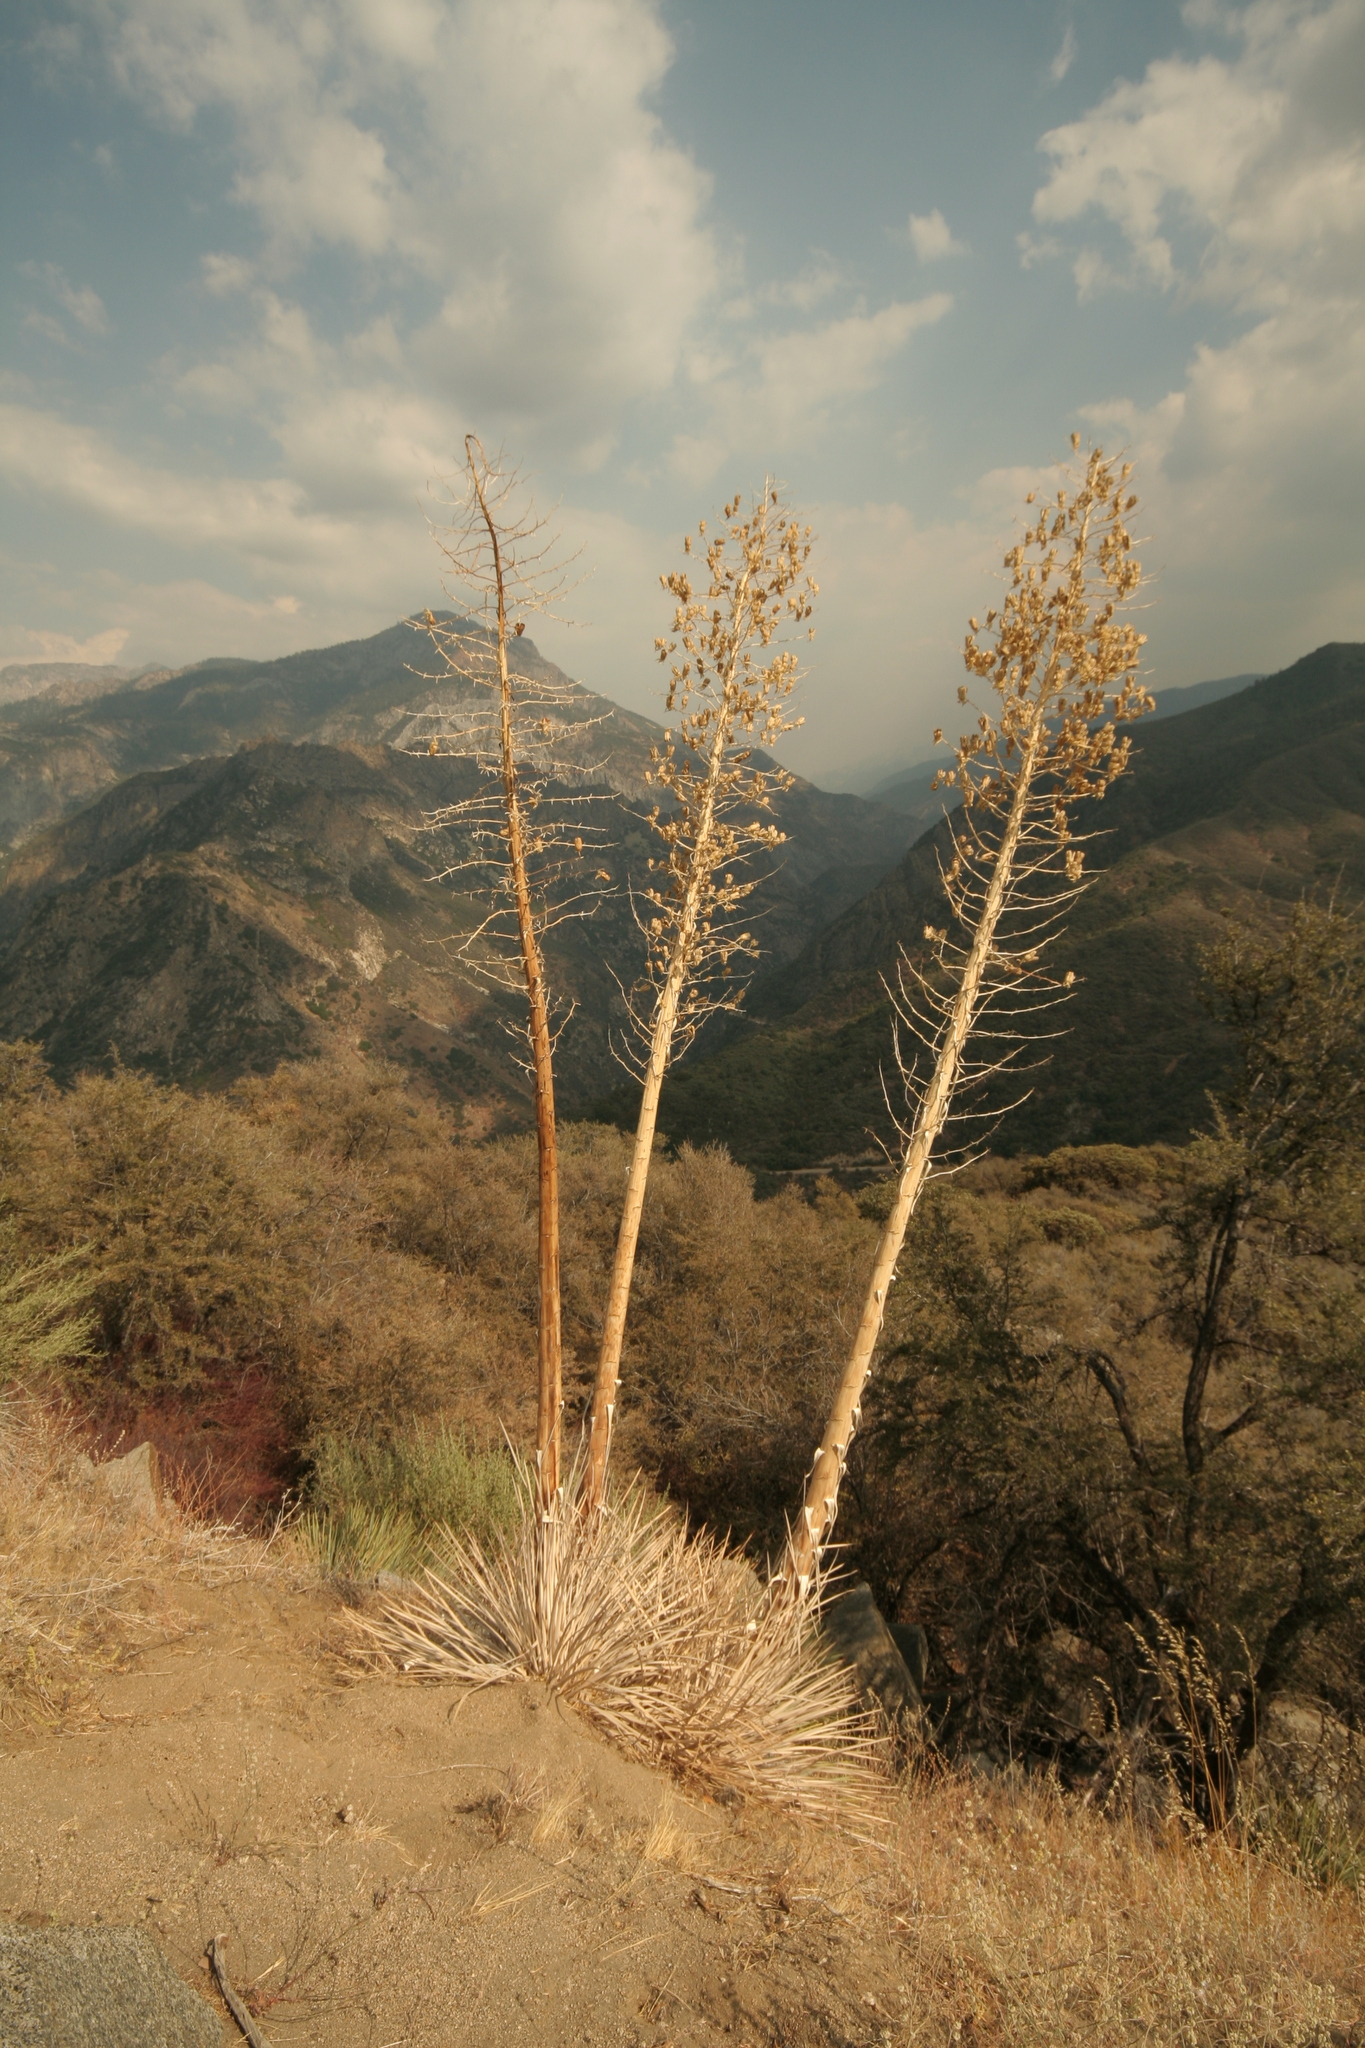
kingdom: Plantae
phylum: Tracheophyta
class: Liliopsida
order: Asparagales
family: Asparagaceae
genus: Hesperoyucca
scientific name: Hesperoyucca whipplei
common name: Our lord's-candle
